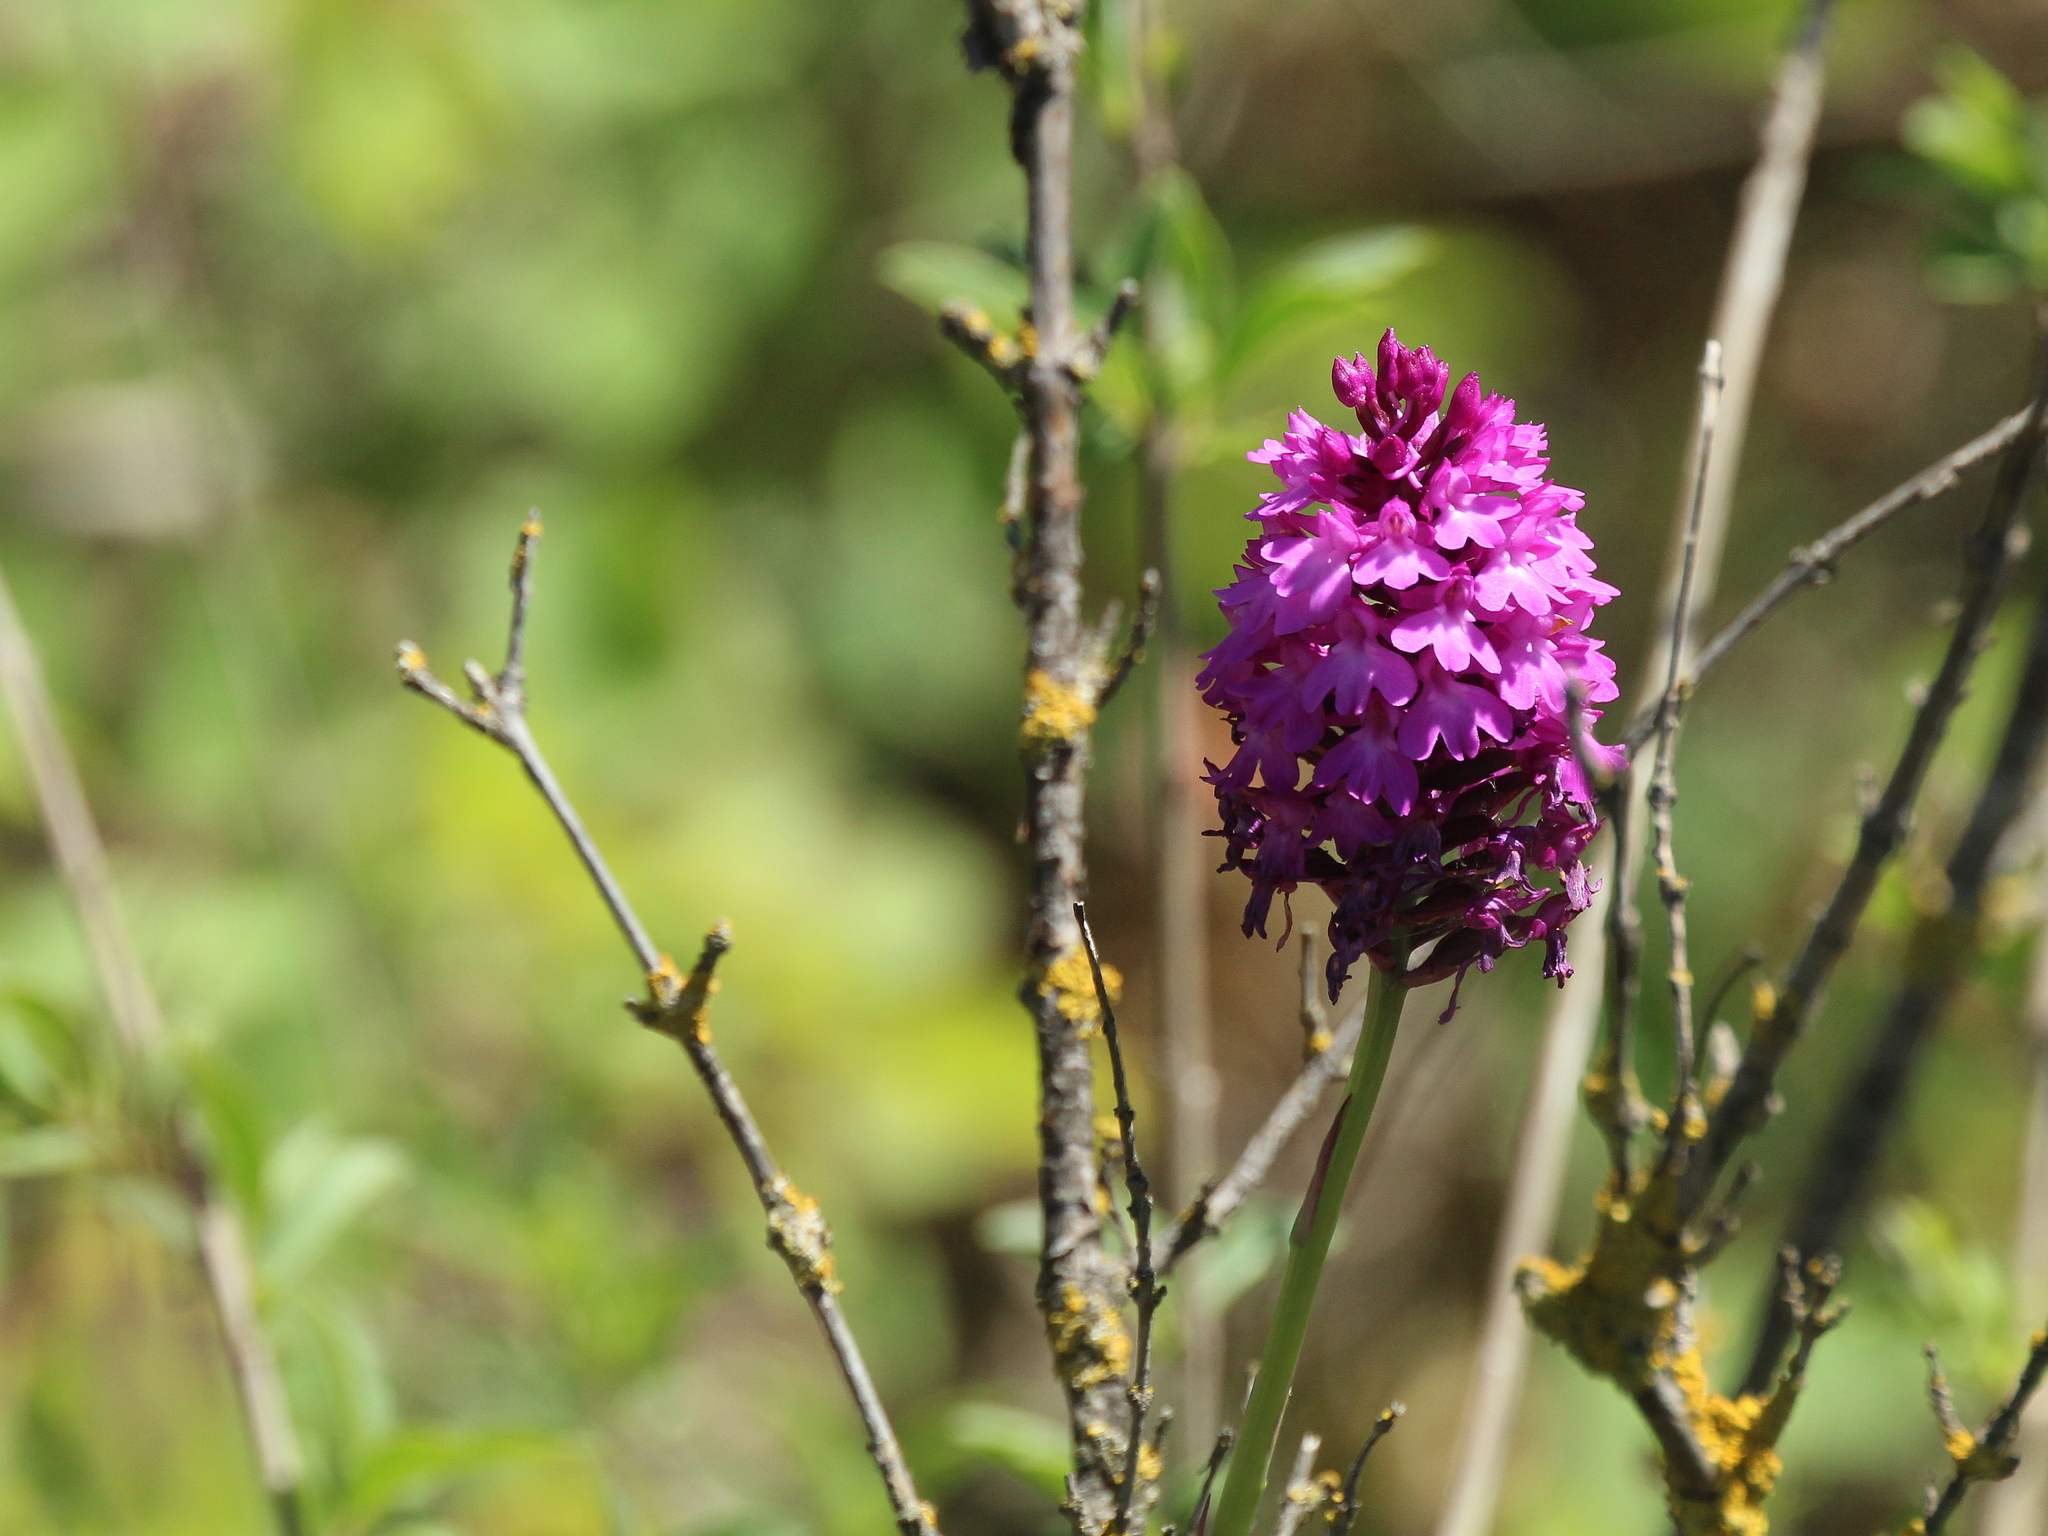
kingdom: Plantae
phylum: Tracheophyta
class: Liliopsida
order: Asparagales
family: Orchidaceae
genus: Anacamptis
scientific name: Anacamptis pyramidalis
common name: Pyramidal orchid
